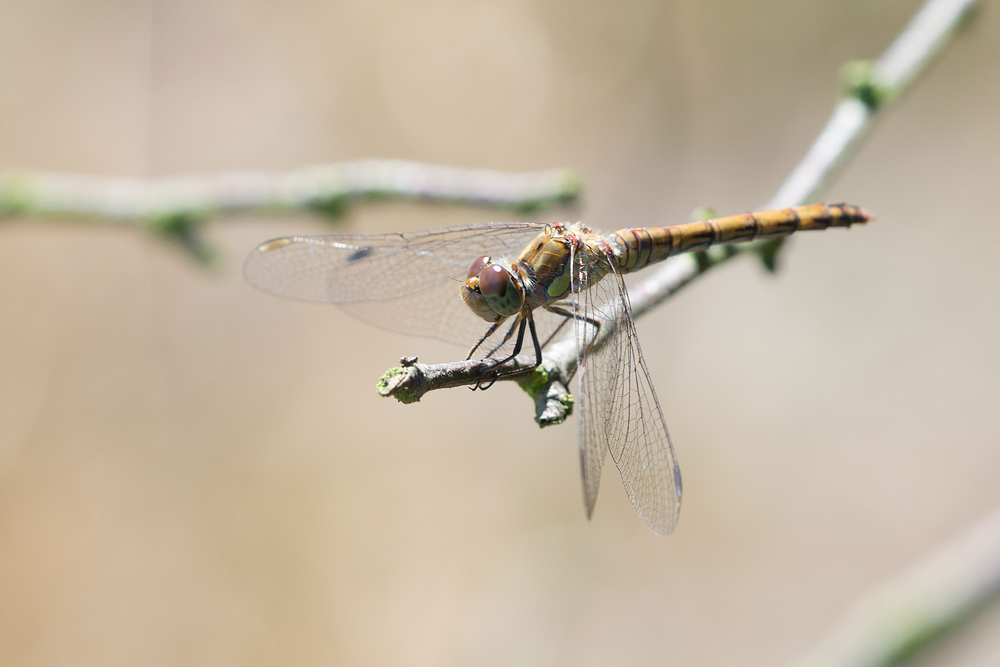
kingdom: Animalia
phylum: Arthropoda
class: Insecta
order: Odonata
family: Libellulidae
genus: Sympetrum
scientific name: Sympetrum striolatum
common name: Common darter
